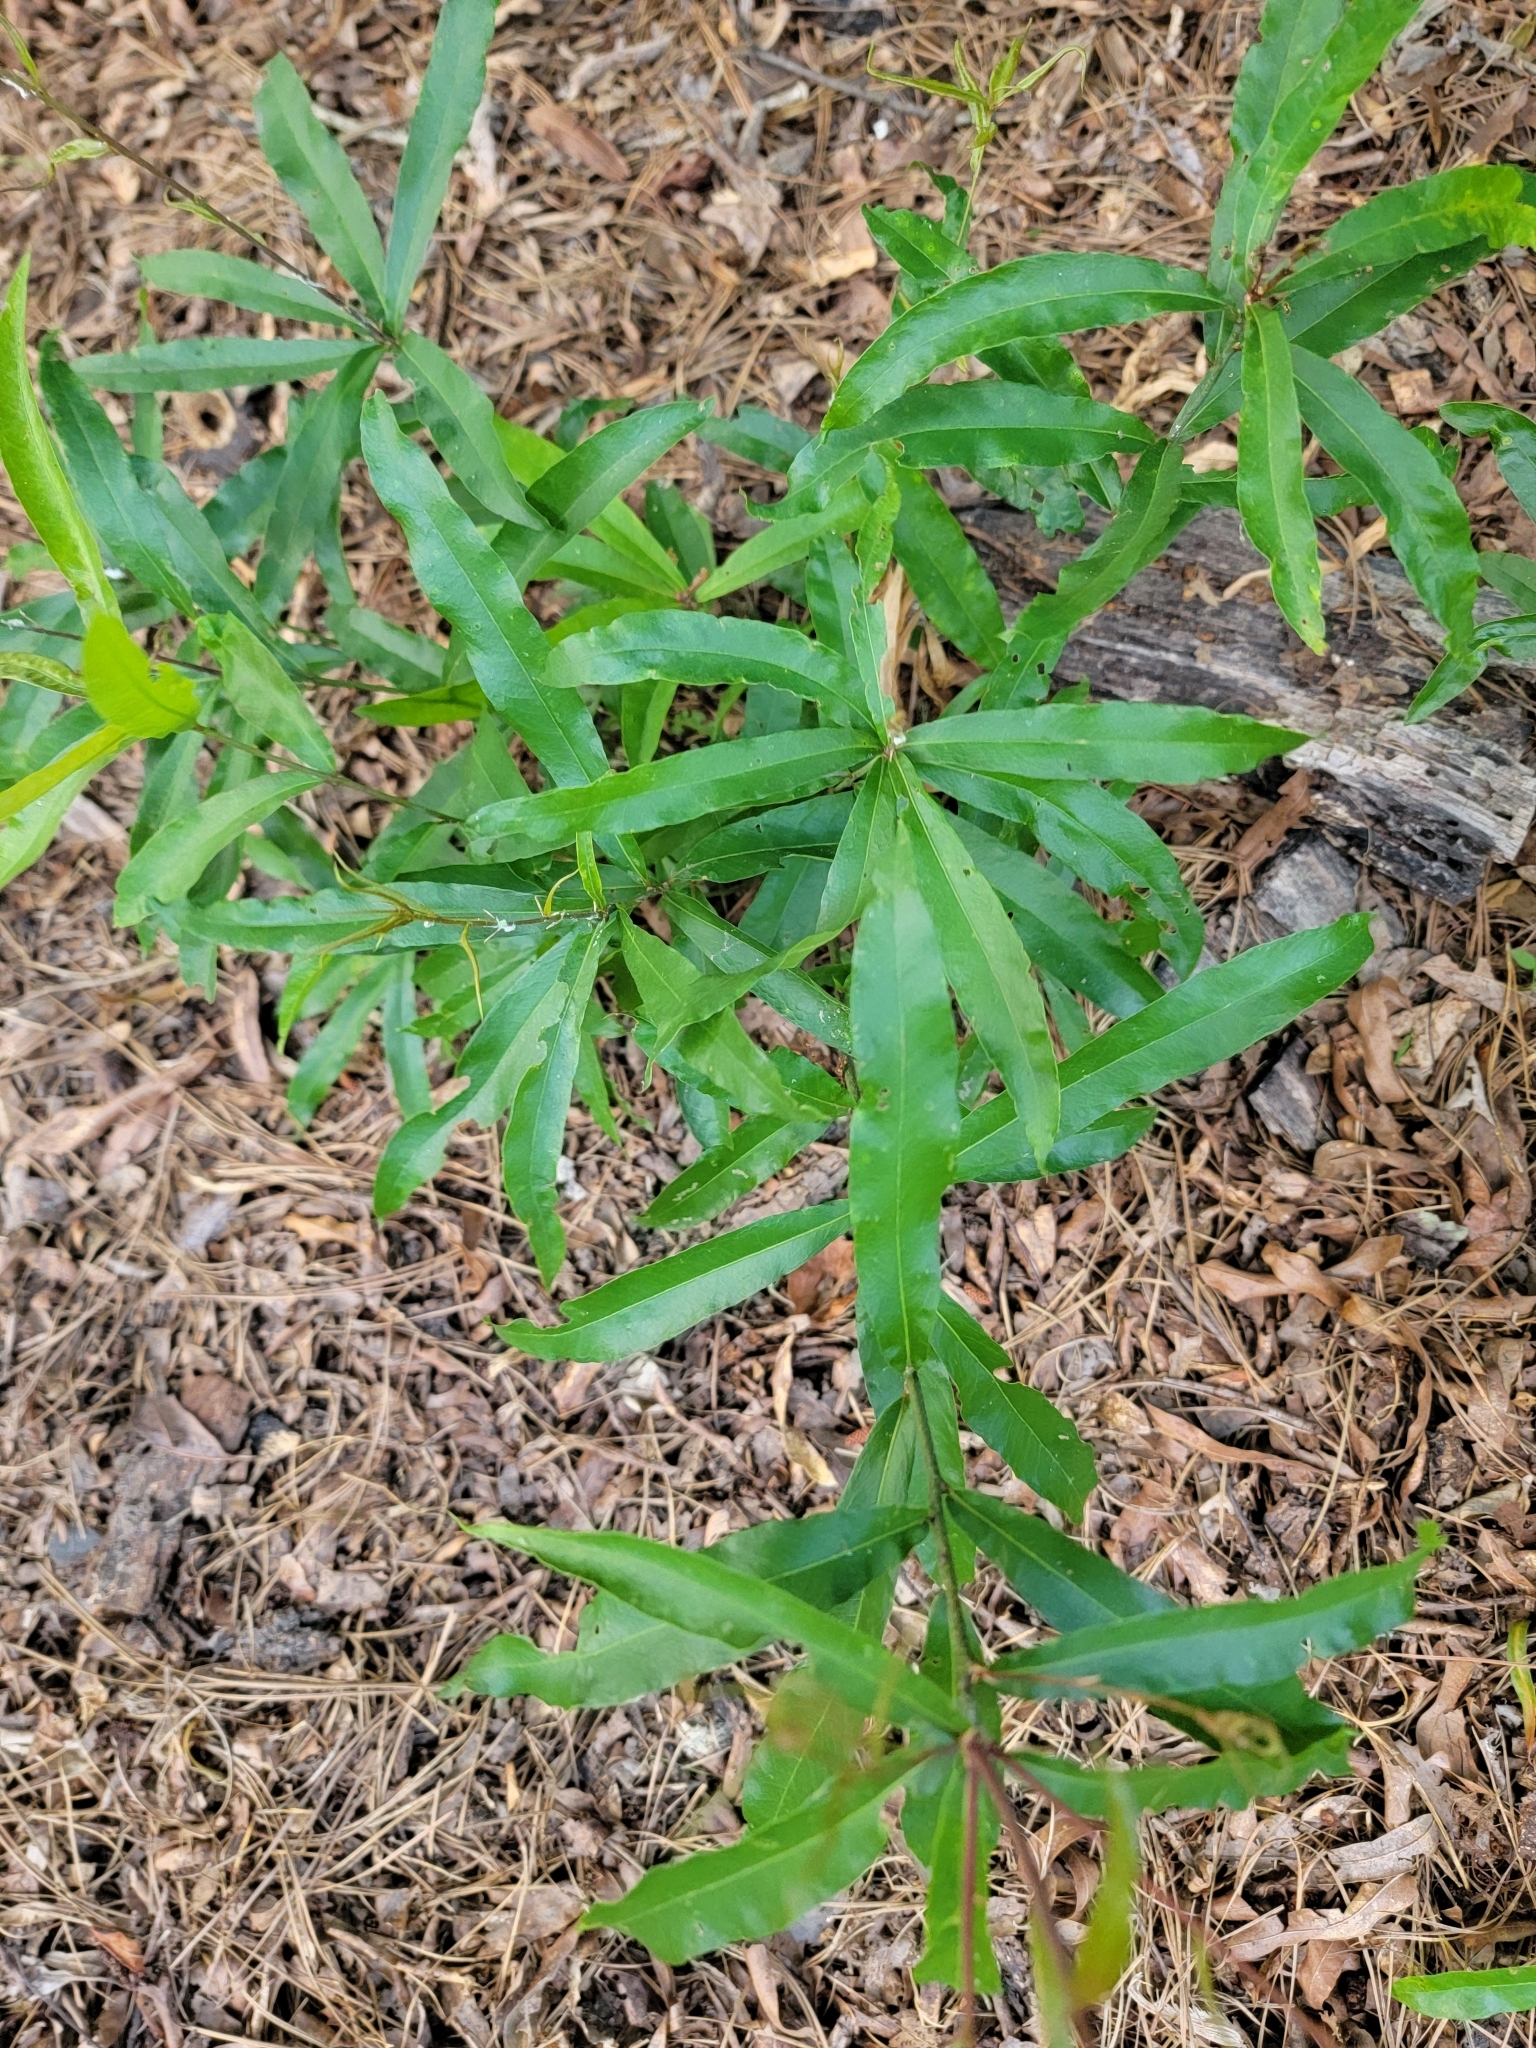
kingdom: Plantae
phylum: Tracheophyta
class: Magnoliopsida
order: Fagales
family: Fagaceae
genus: Quercus
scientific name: Quercus phellos
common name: Willow oak
